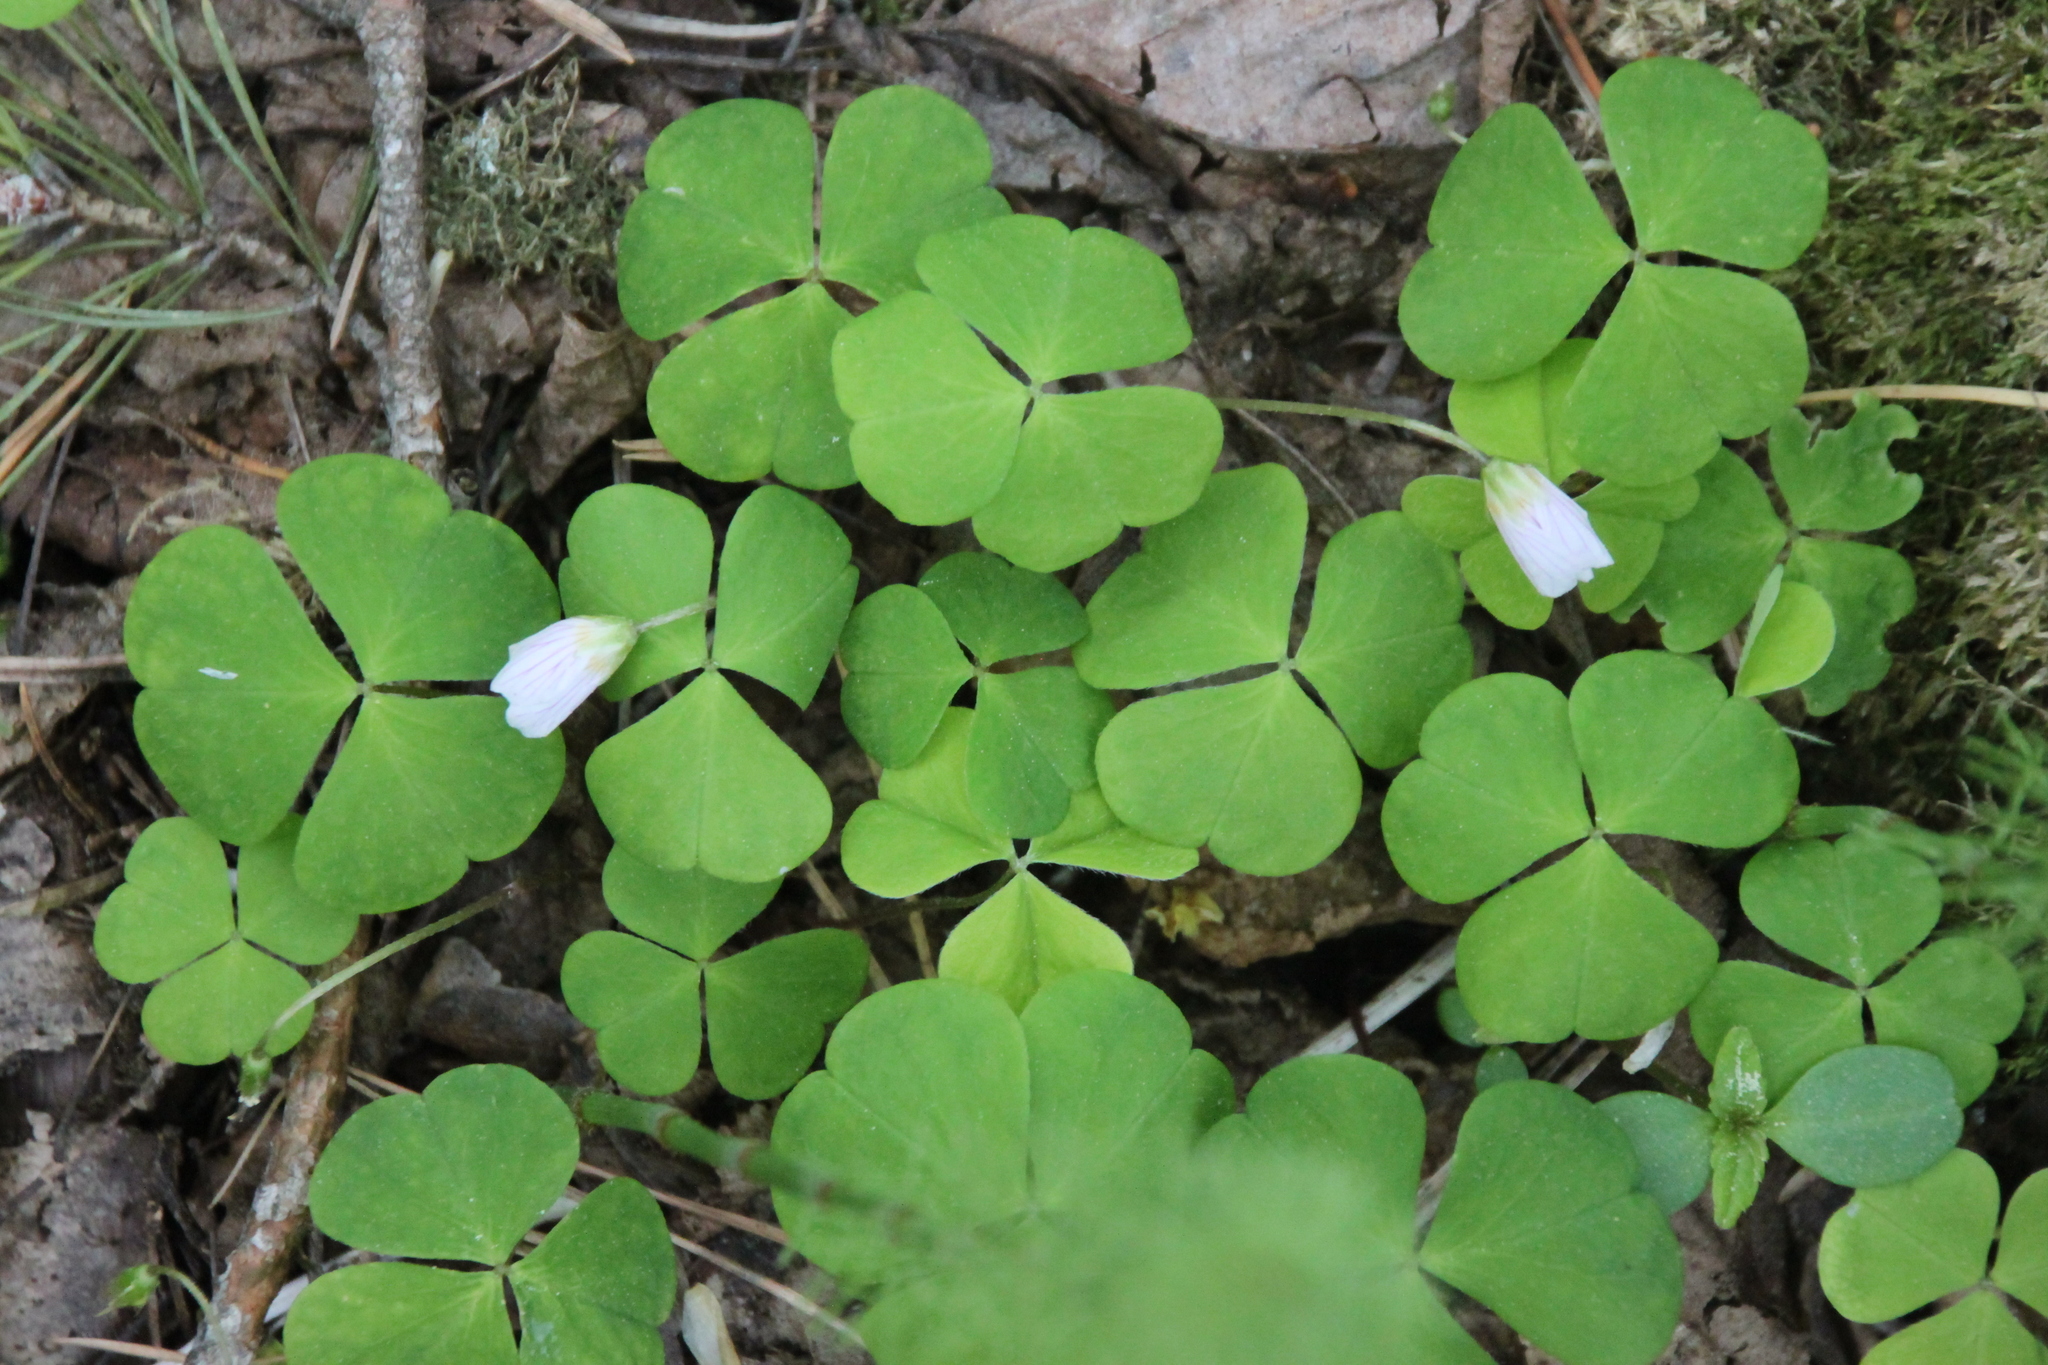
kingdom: Plantae
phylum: Tracheophyta
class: Magnoliopsida
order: Oxalidales
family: Oxalidaceae
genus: Oxalis
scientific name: Oxalis acetosella
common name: Wood-sorrel
